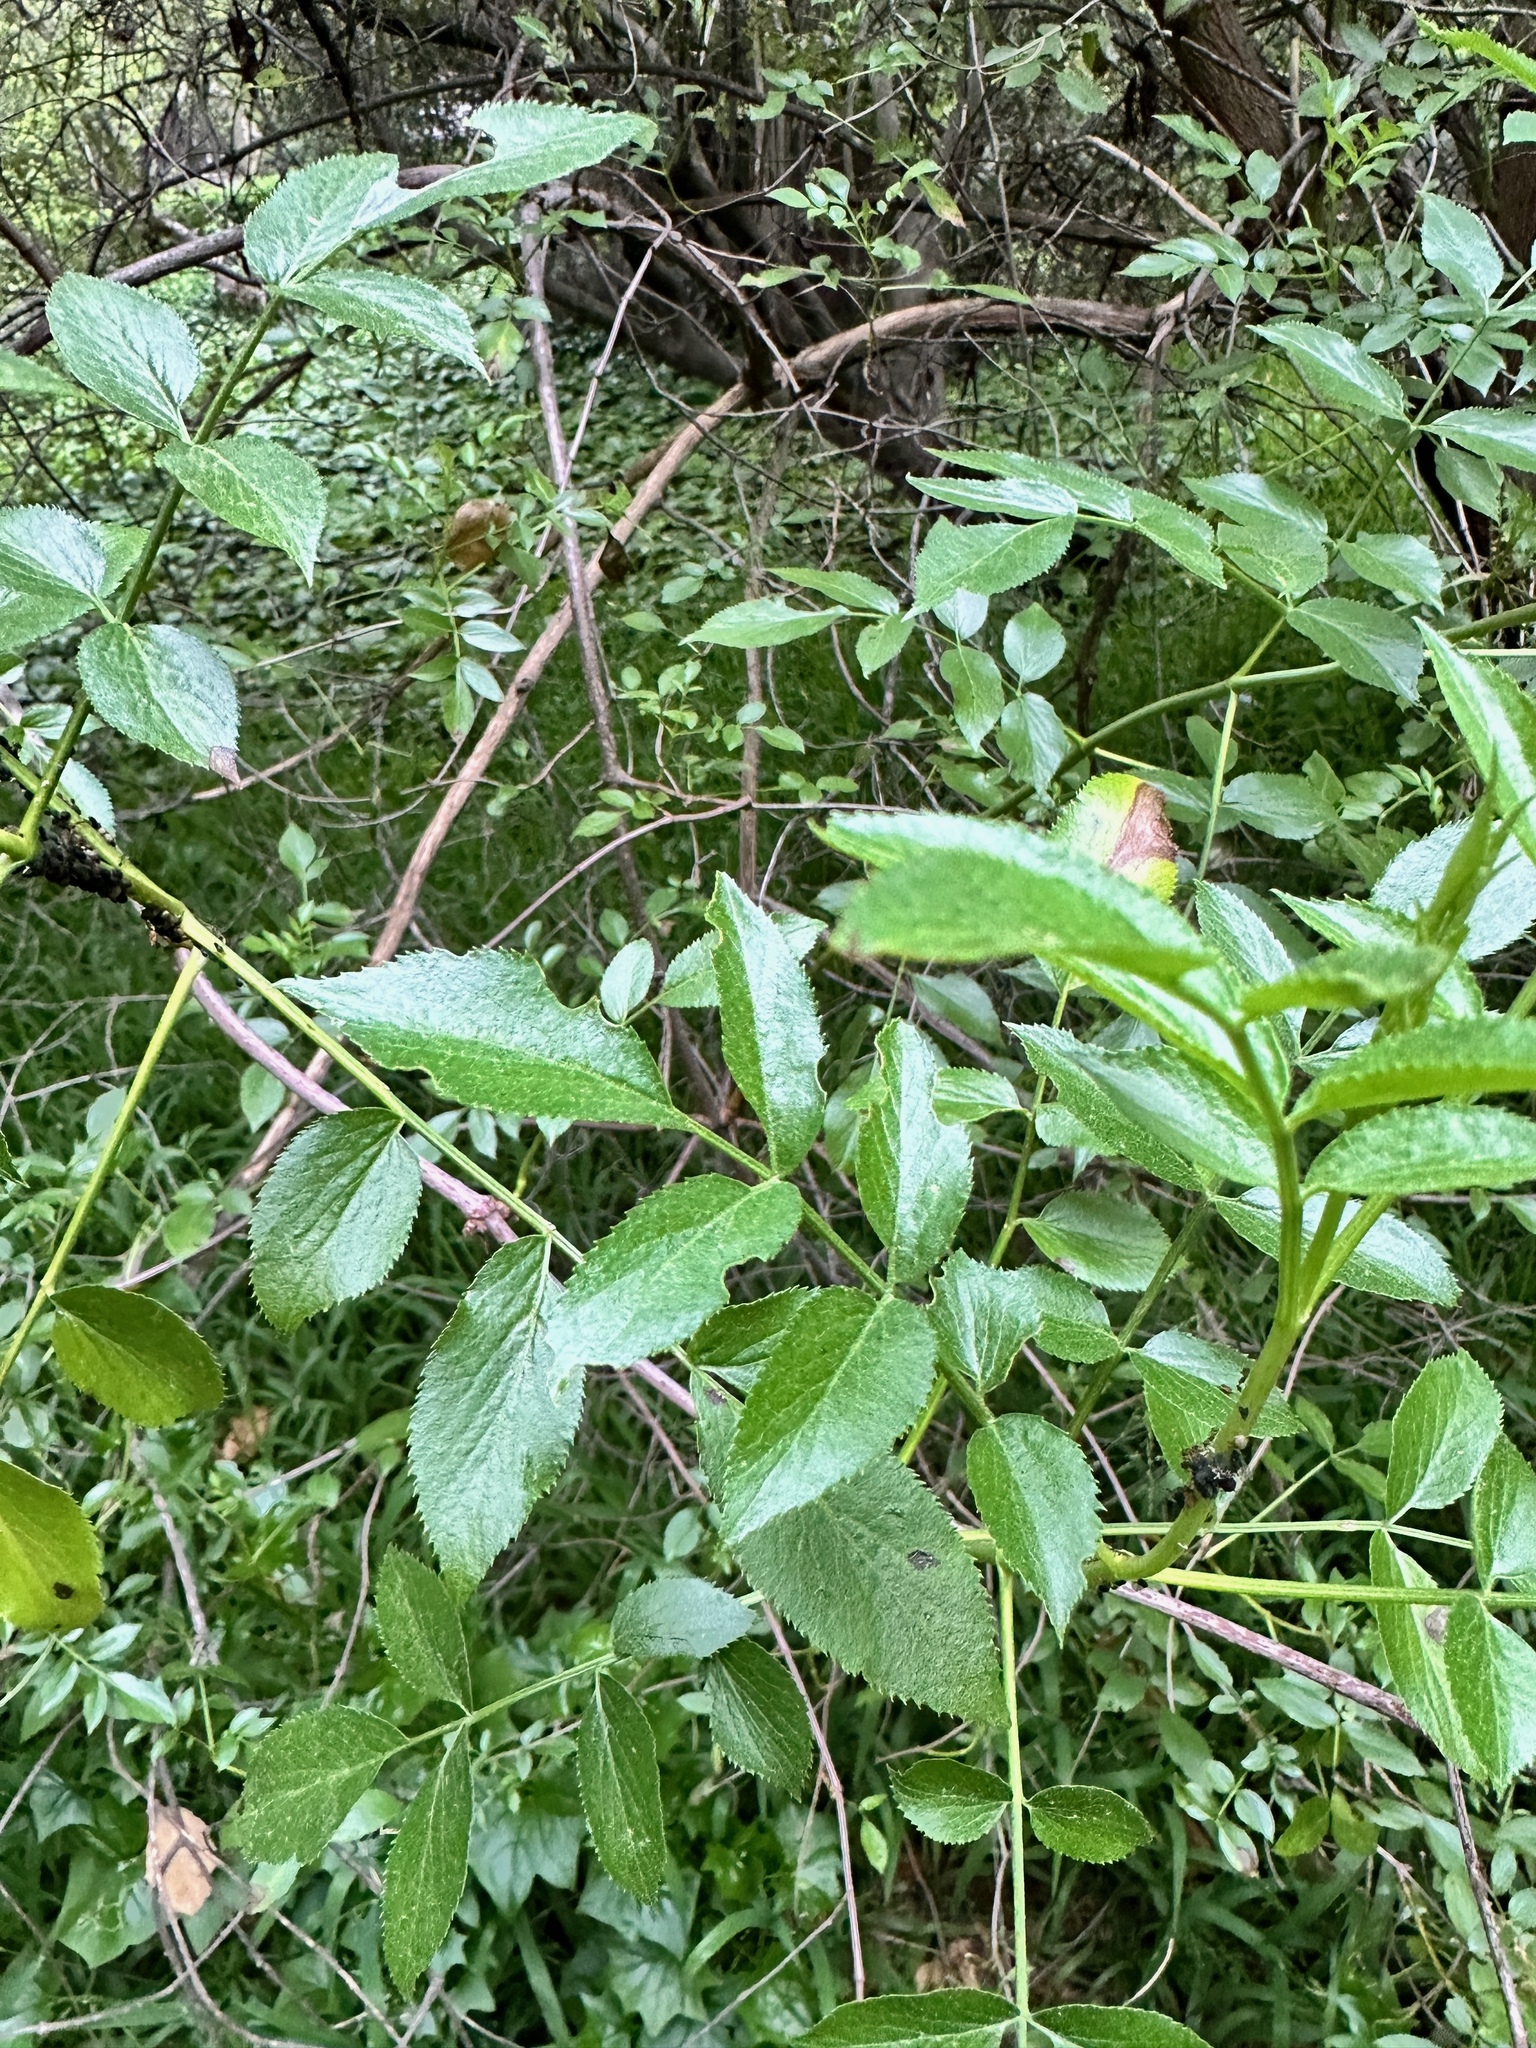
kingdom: Plantae
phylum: Tracheophyta
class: Magnoliopsida
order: Dipsacales
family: Viburnaceae
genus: Sambucus
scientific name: Sambucus cerulea
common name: Blue elder
